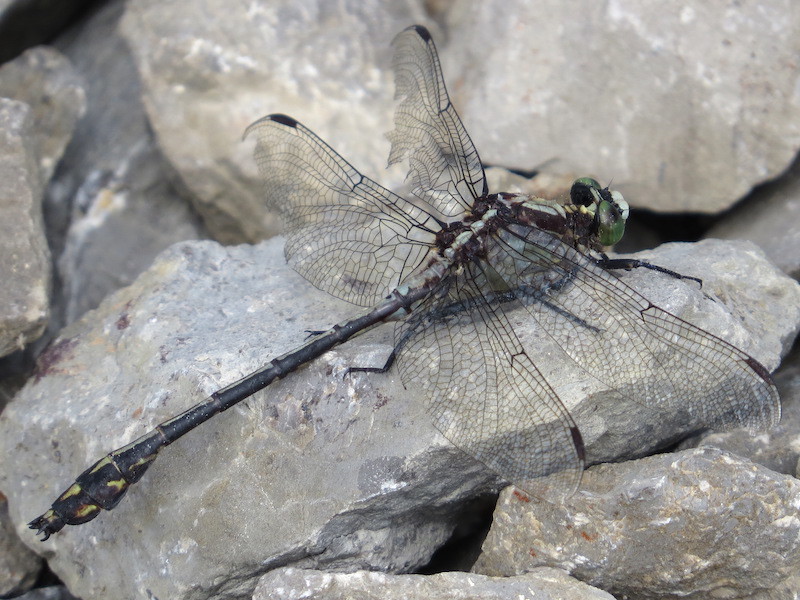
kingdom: Animalia
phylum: Arthropoda
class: Insecta
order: Odonata
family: Gomphidae
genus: Dromogomphus
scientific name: Dromogomphus spinosus
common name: Black-shouldered spinyleg
